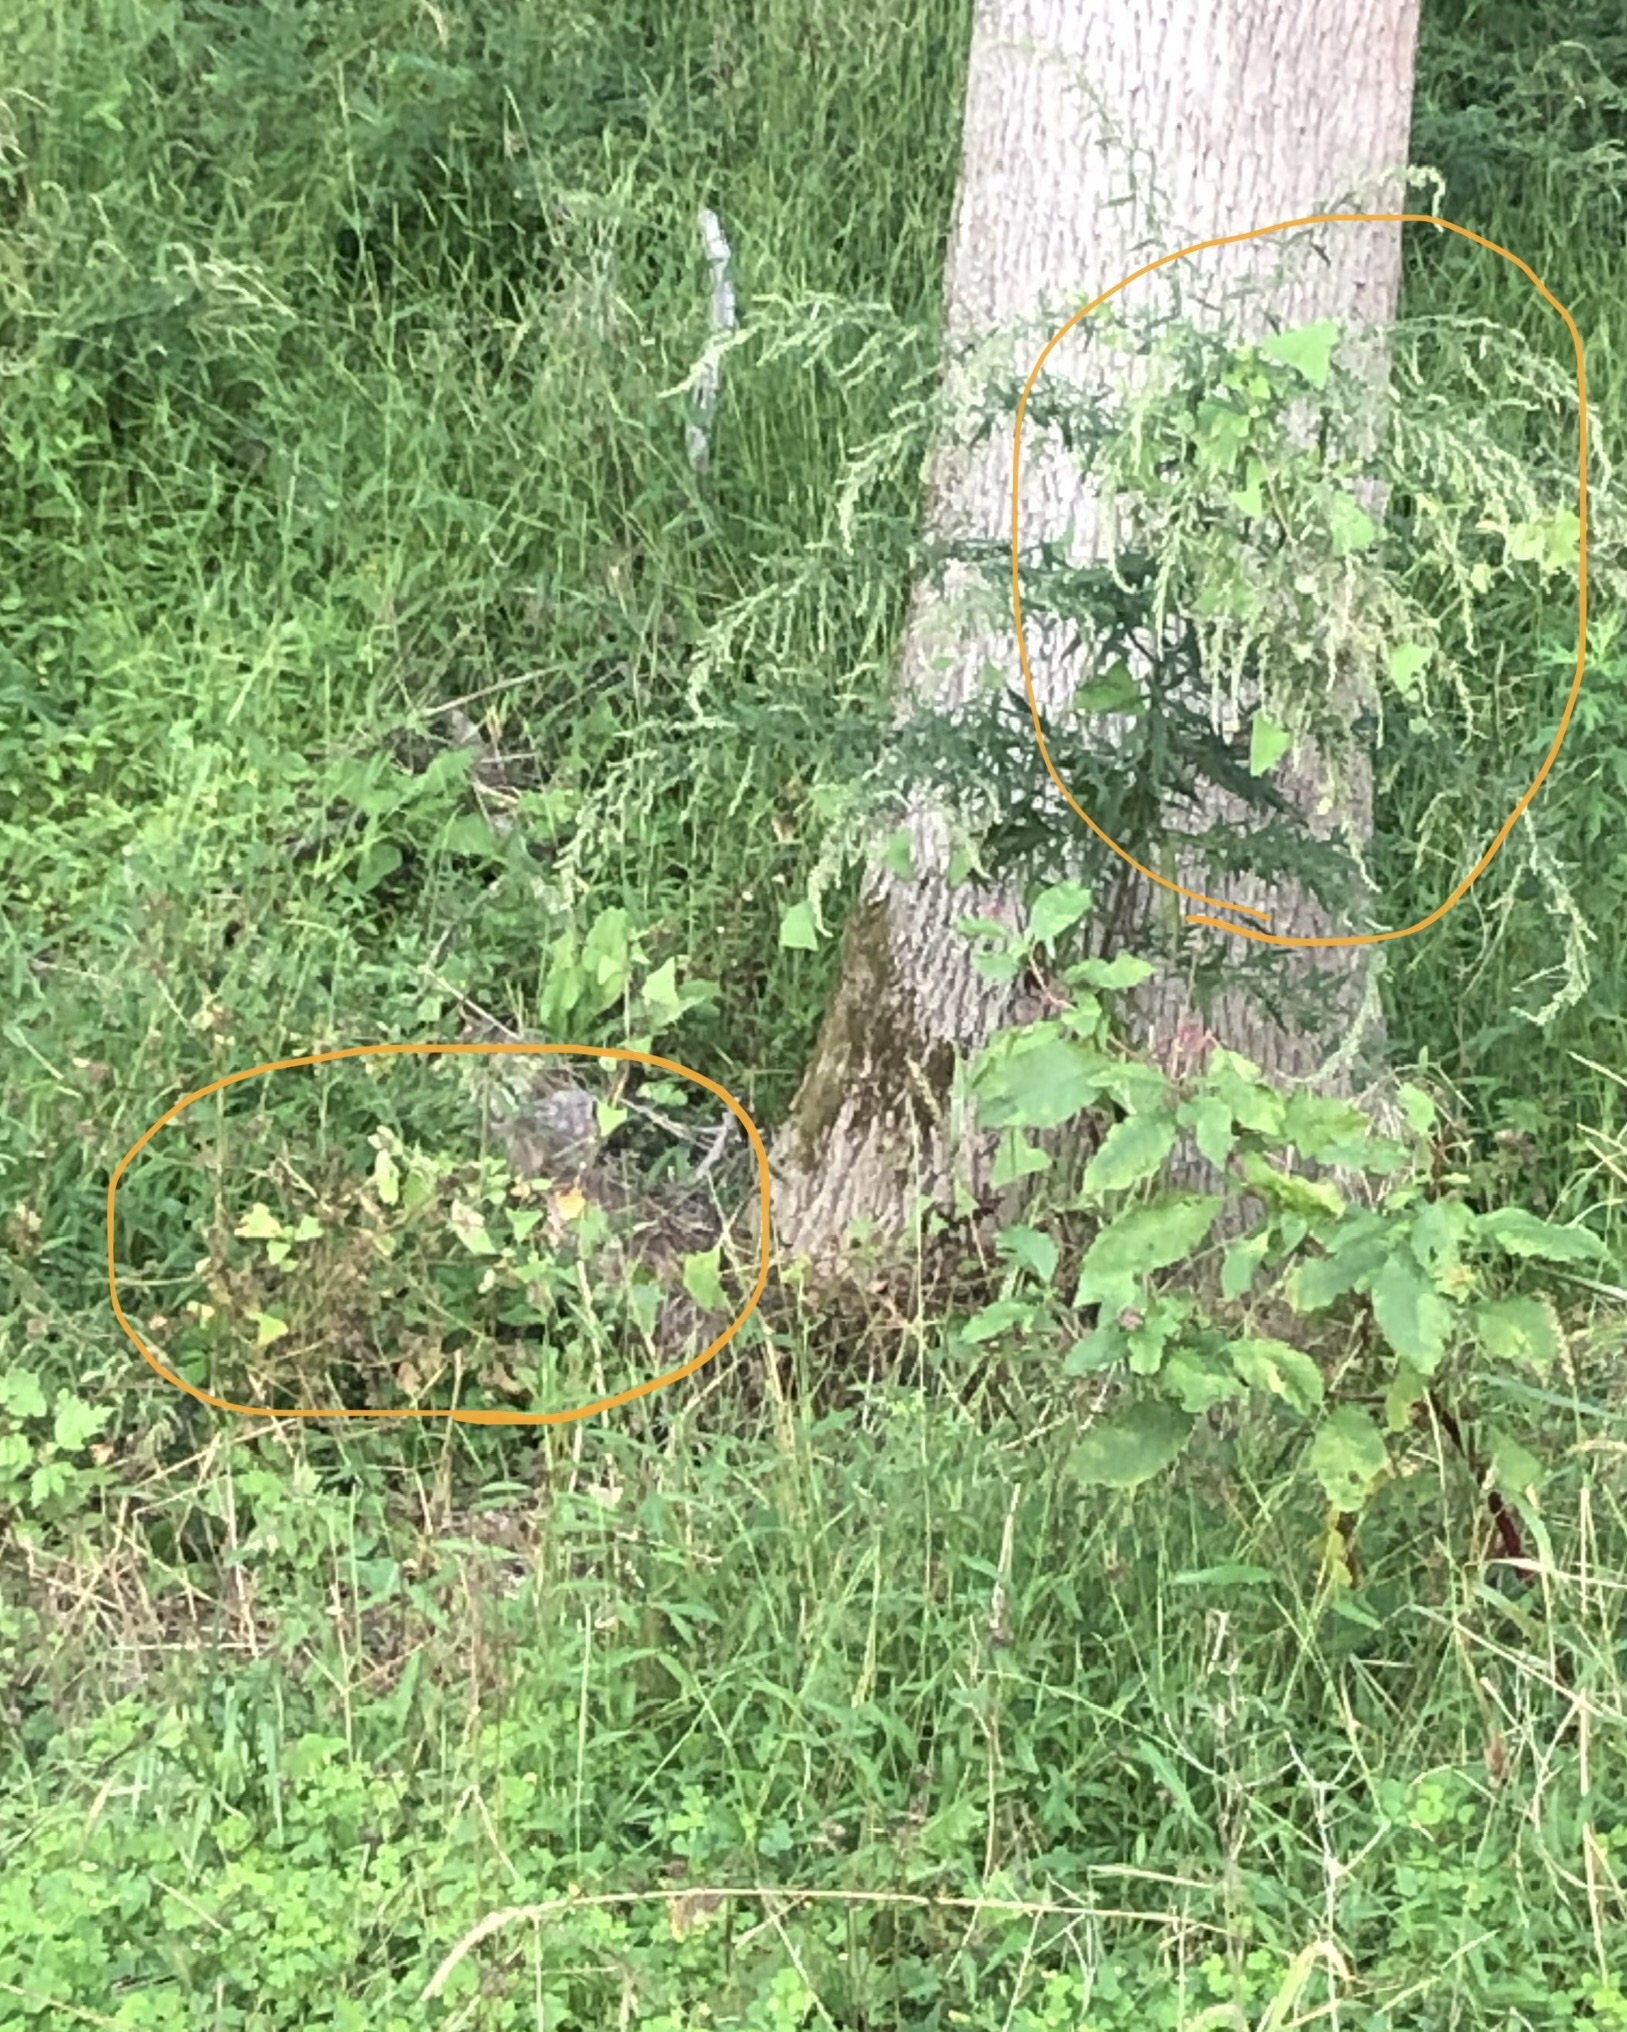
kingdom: Plantae
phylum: Tracheophyta
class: Magnoliopsida
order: Caryophyllales
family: Polygonaceae
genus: Persicaria
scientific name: Persicaria perfoliata
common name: Asiatic tearthumb
